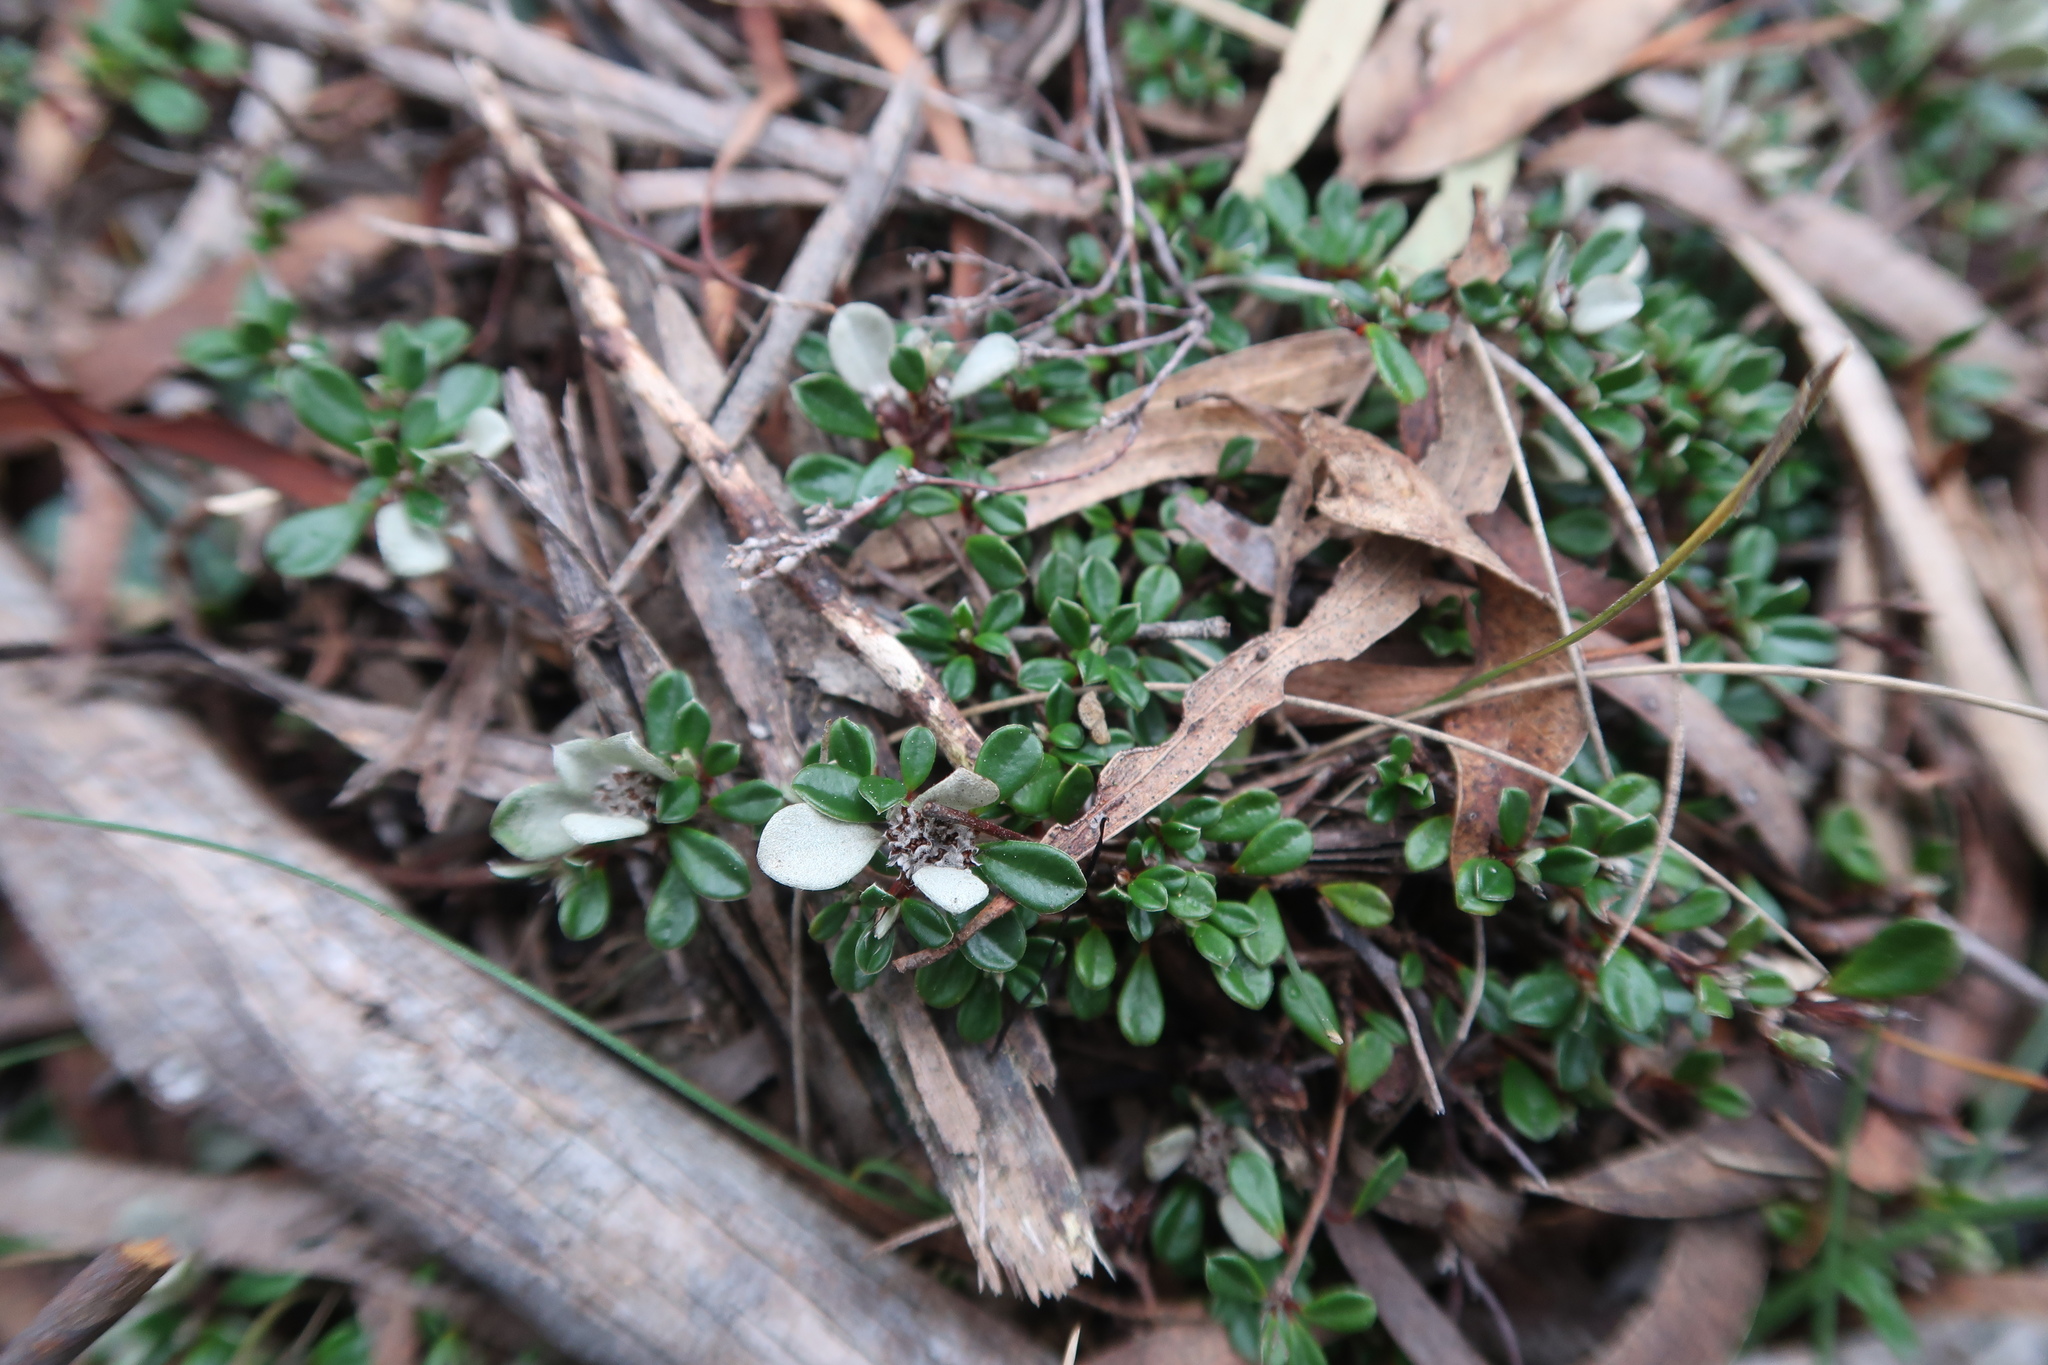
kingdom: Plantae
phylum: Tracheophyta
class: Magnoliopsida
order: Rosales
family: Rhamnaceae
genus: Stenanthemum
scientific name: Stenanthemum pimeleoides
